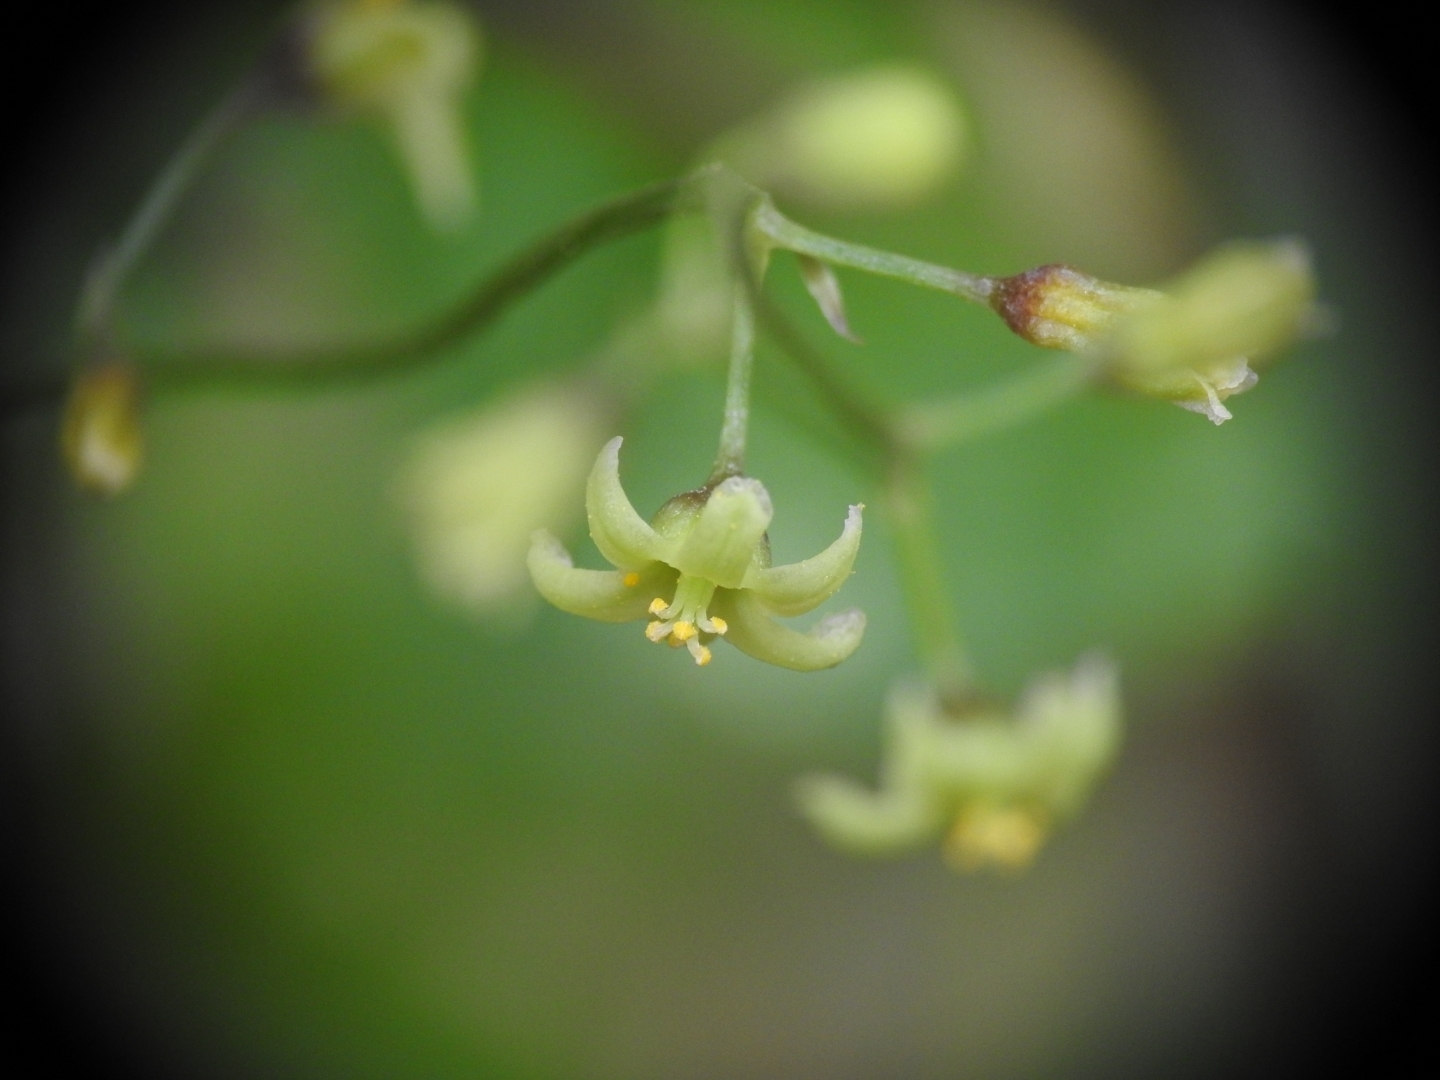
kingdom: Plantae
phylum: Tracheophyta
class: Liliopsida
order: Dioscoreales
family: Dioscoreaceae
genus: Dioscorea
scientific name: Dioscorea communis
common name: Black-bindweed
